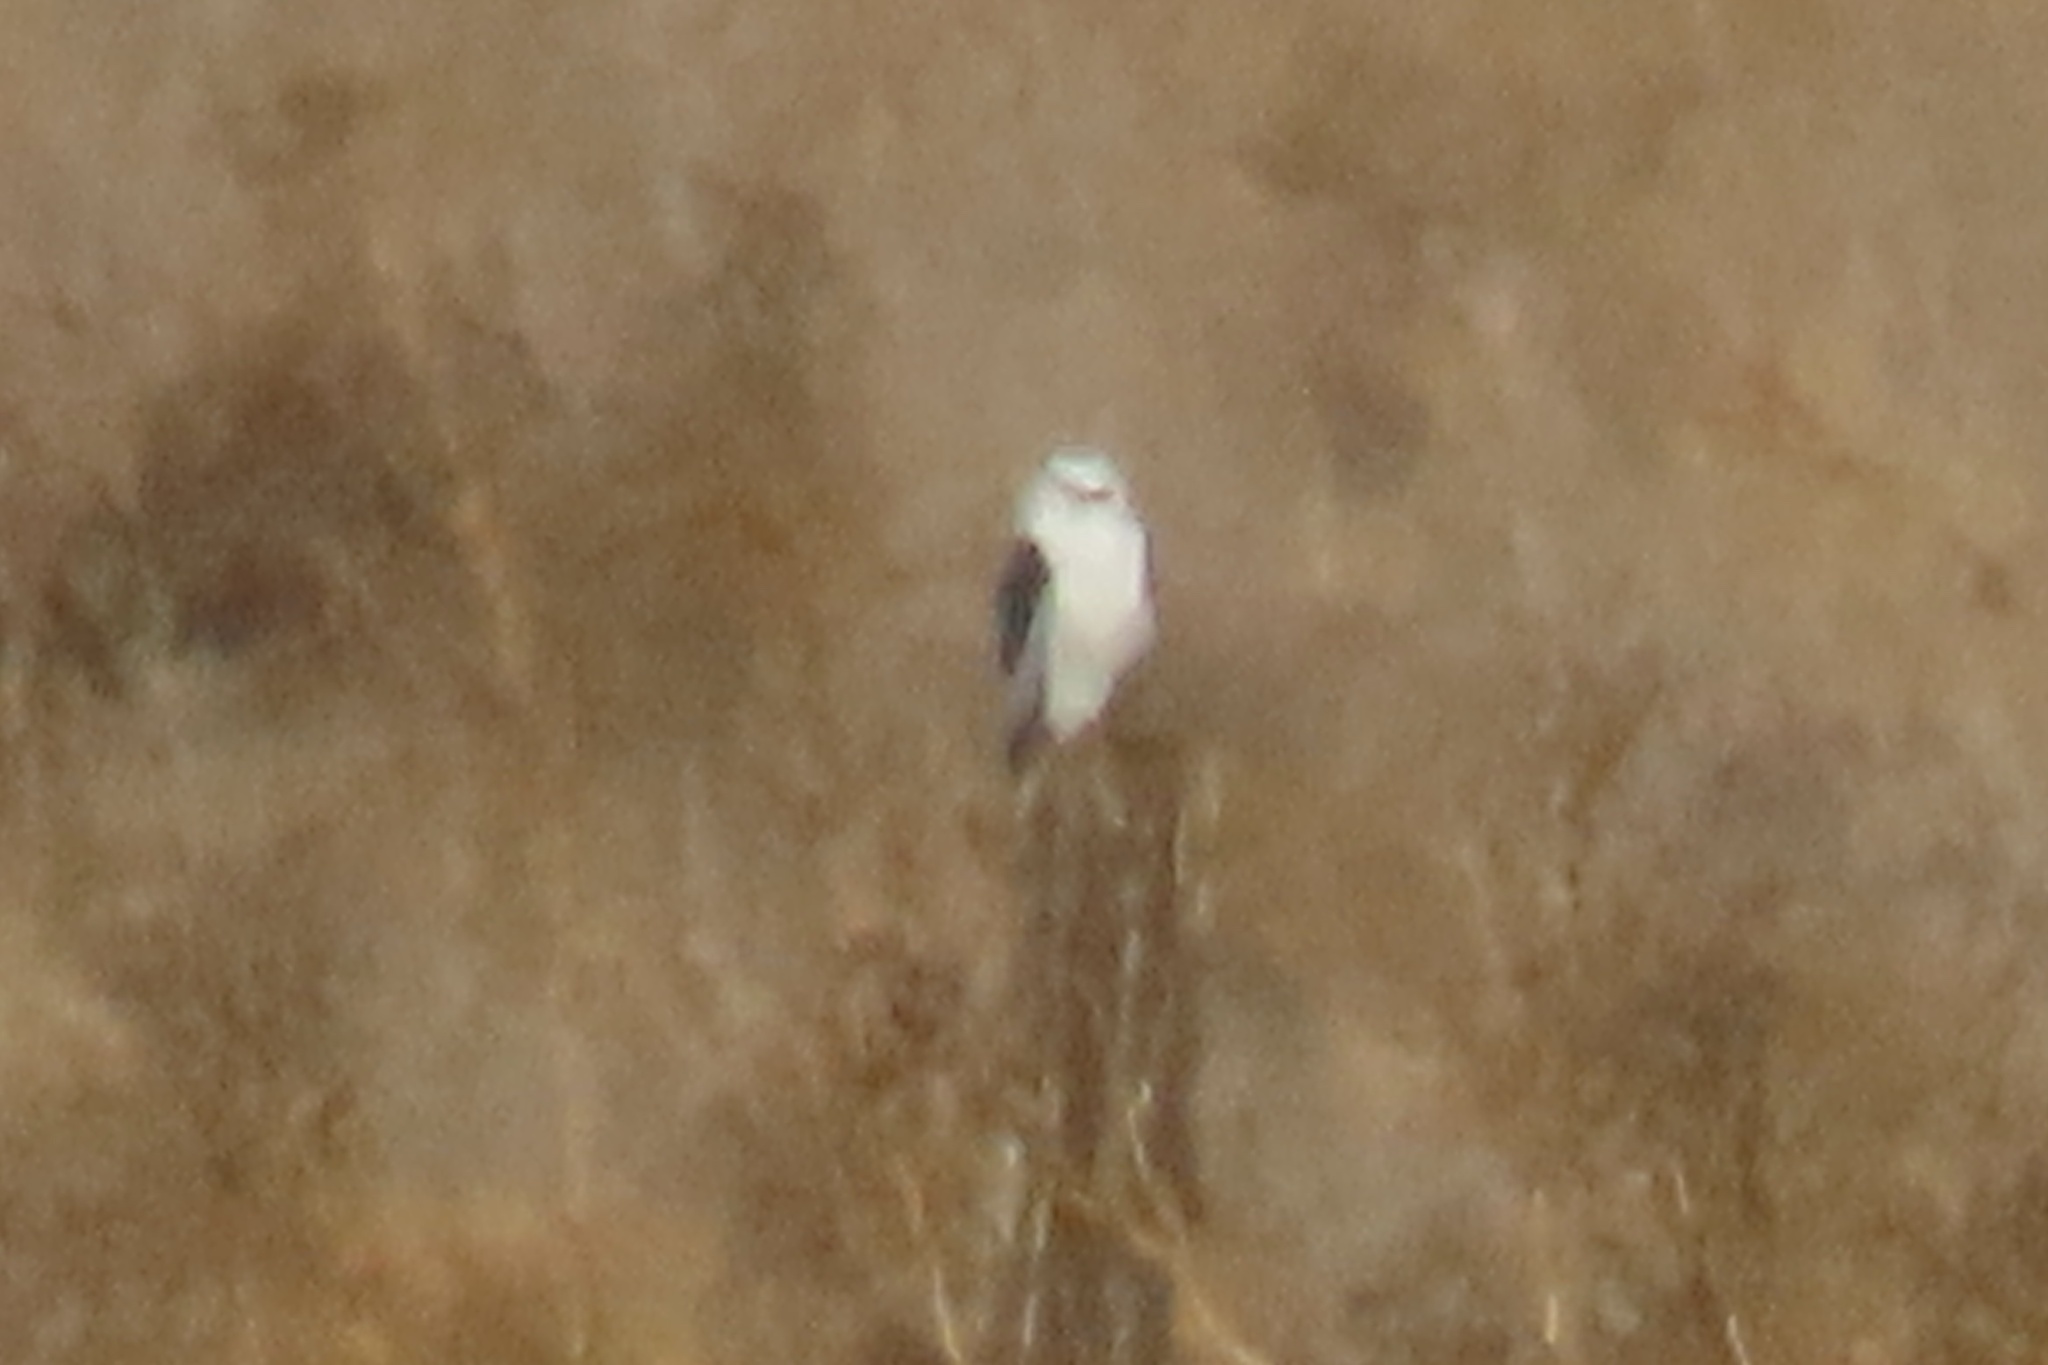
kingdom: Animalia
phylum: Chordata
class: Aves
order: Accipitriformes
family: Accipitridae
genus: Elanus
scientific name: Elanus leucurus
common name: White-tailed kite
